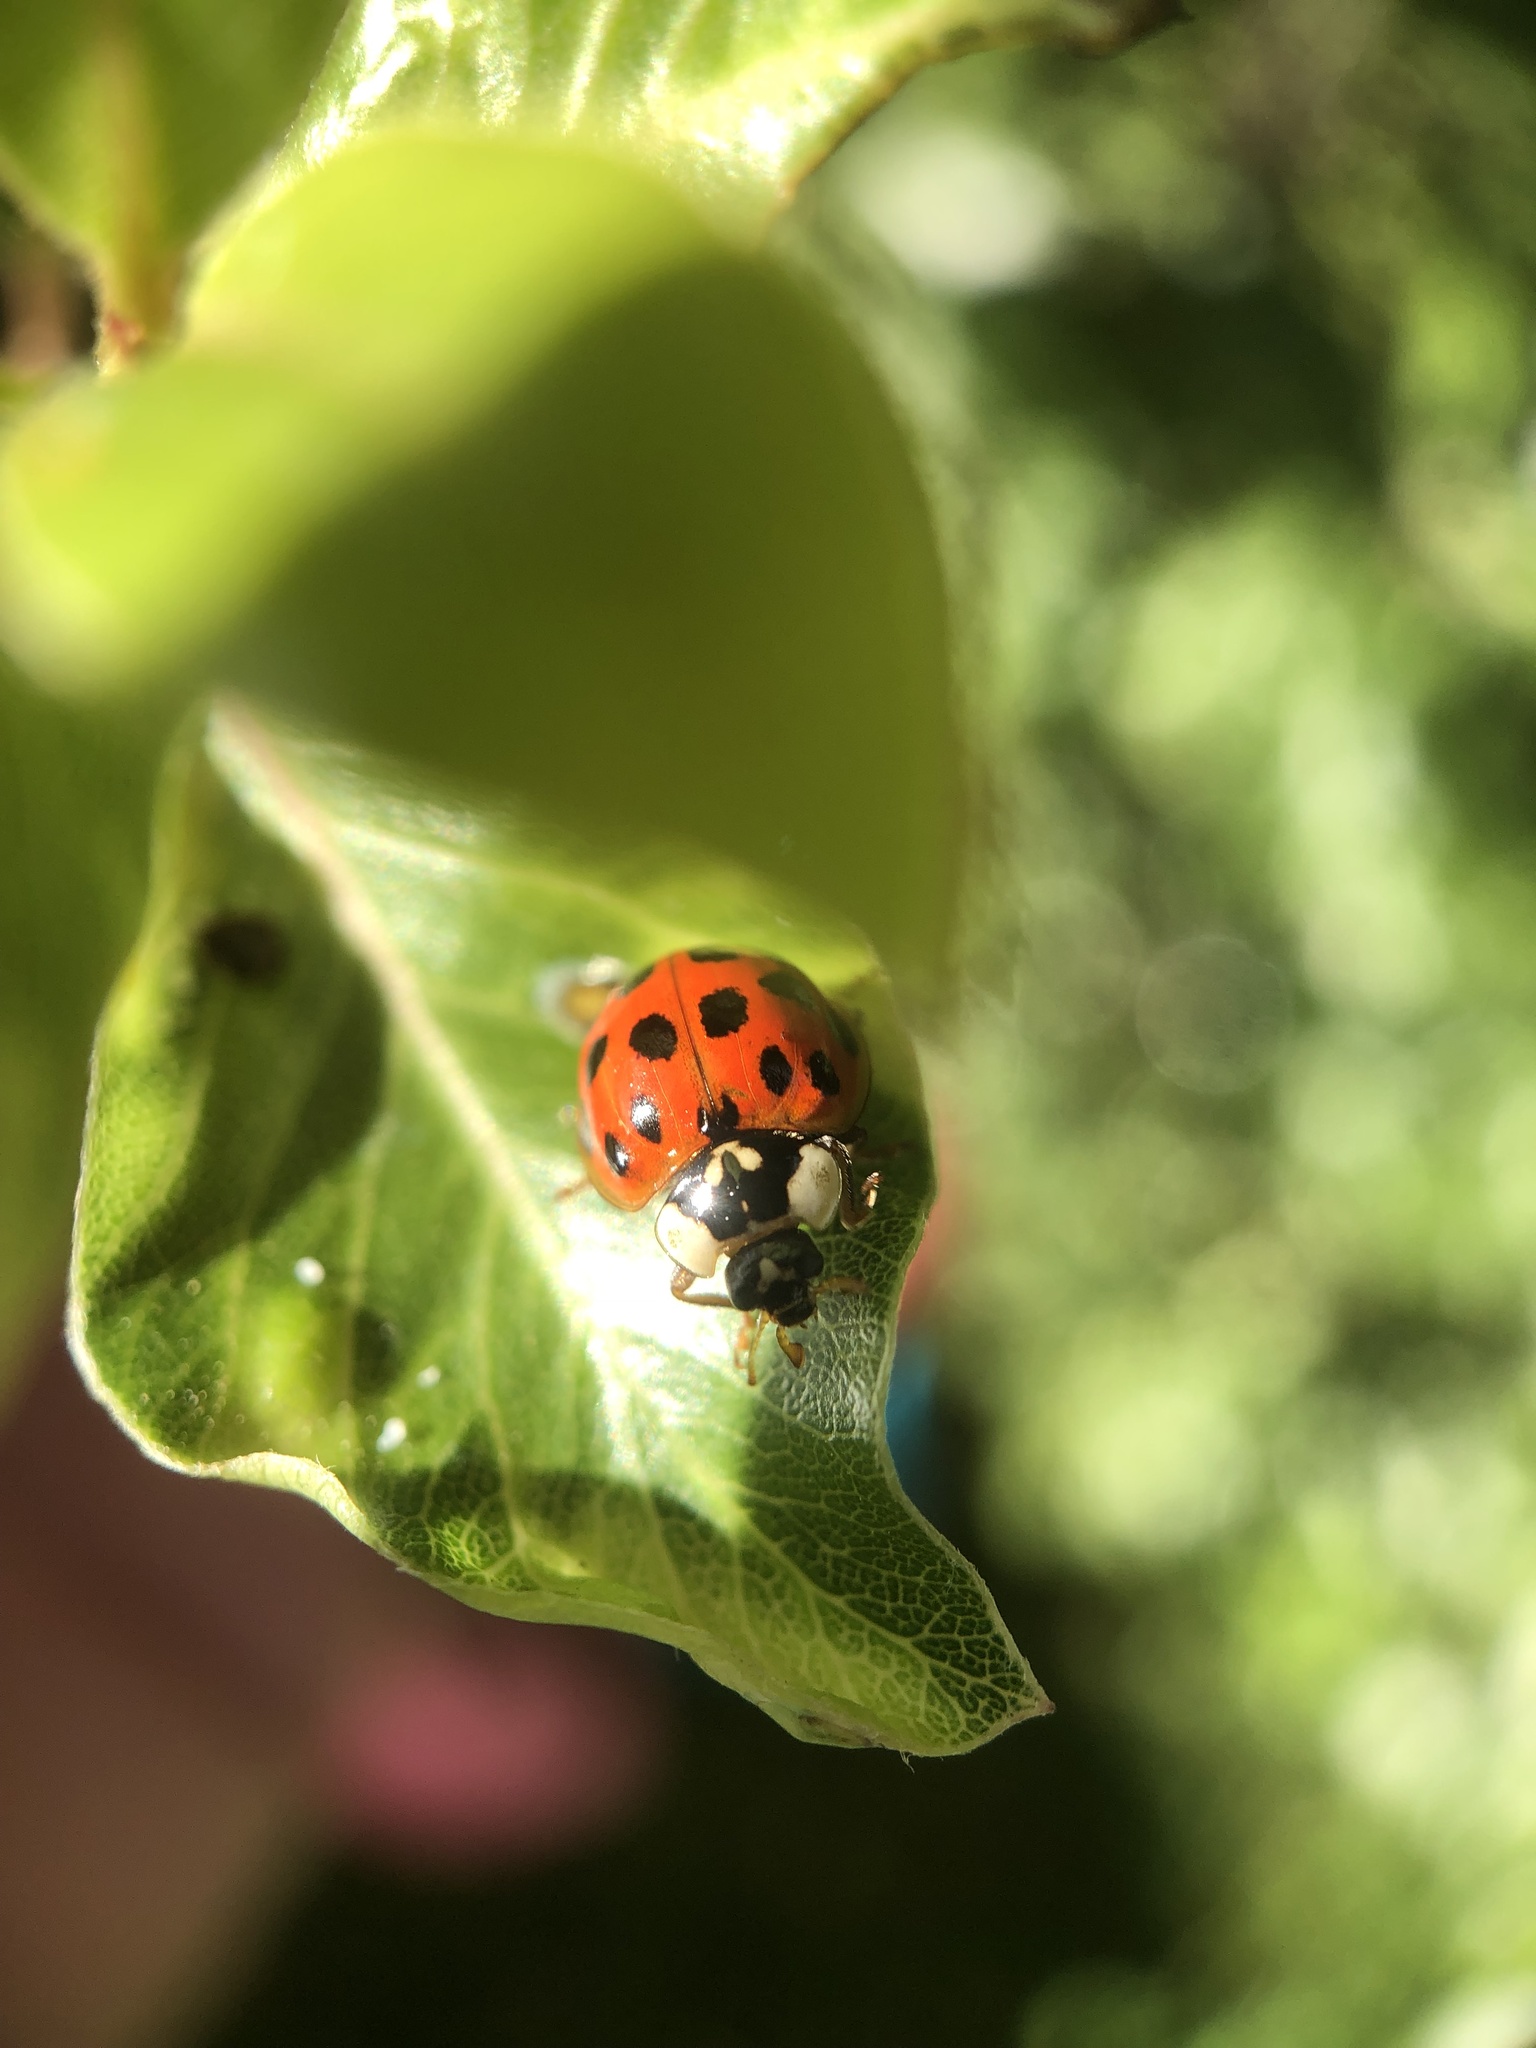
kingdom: Animalia
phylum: Arthropoda
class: Insecta
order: Coleoptera
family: Coccinellidae
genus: Harmonia
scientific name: Harmonia axyridis
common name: Harlequin ladybird
